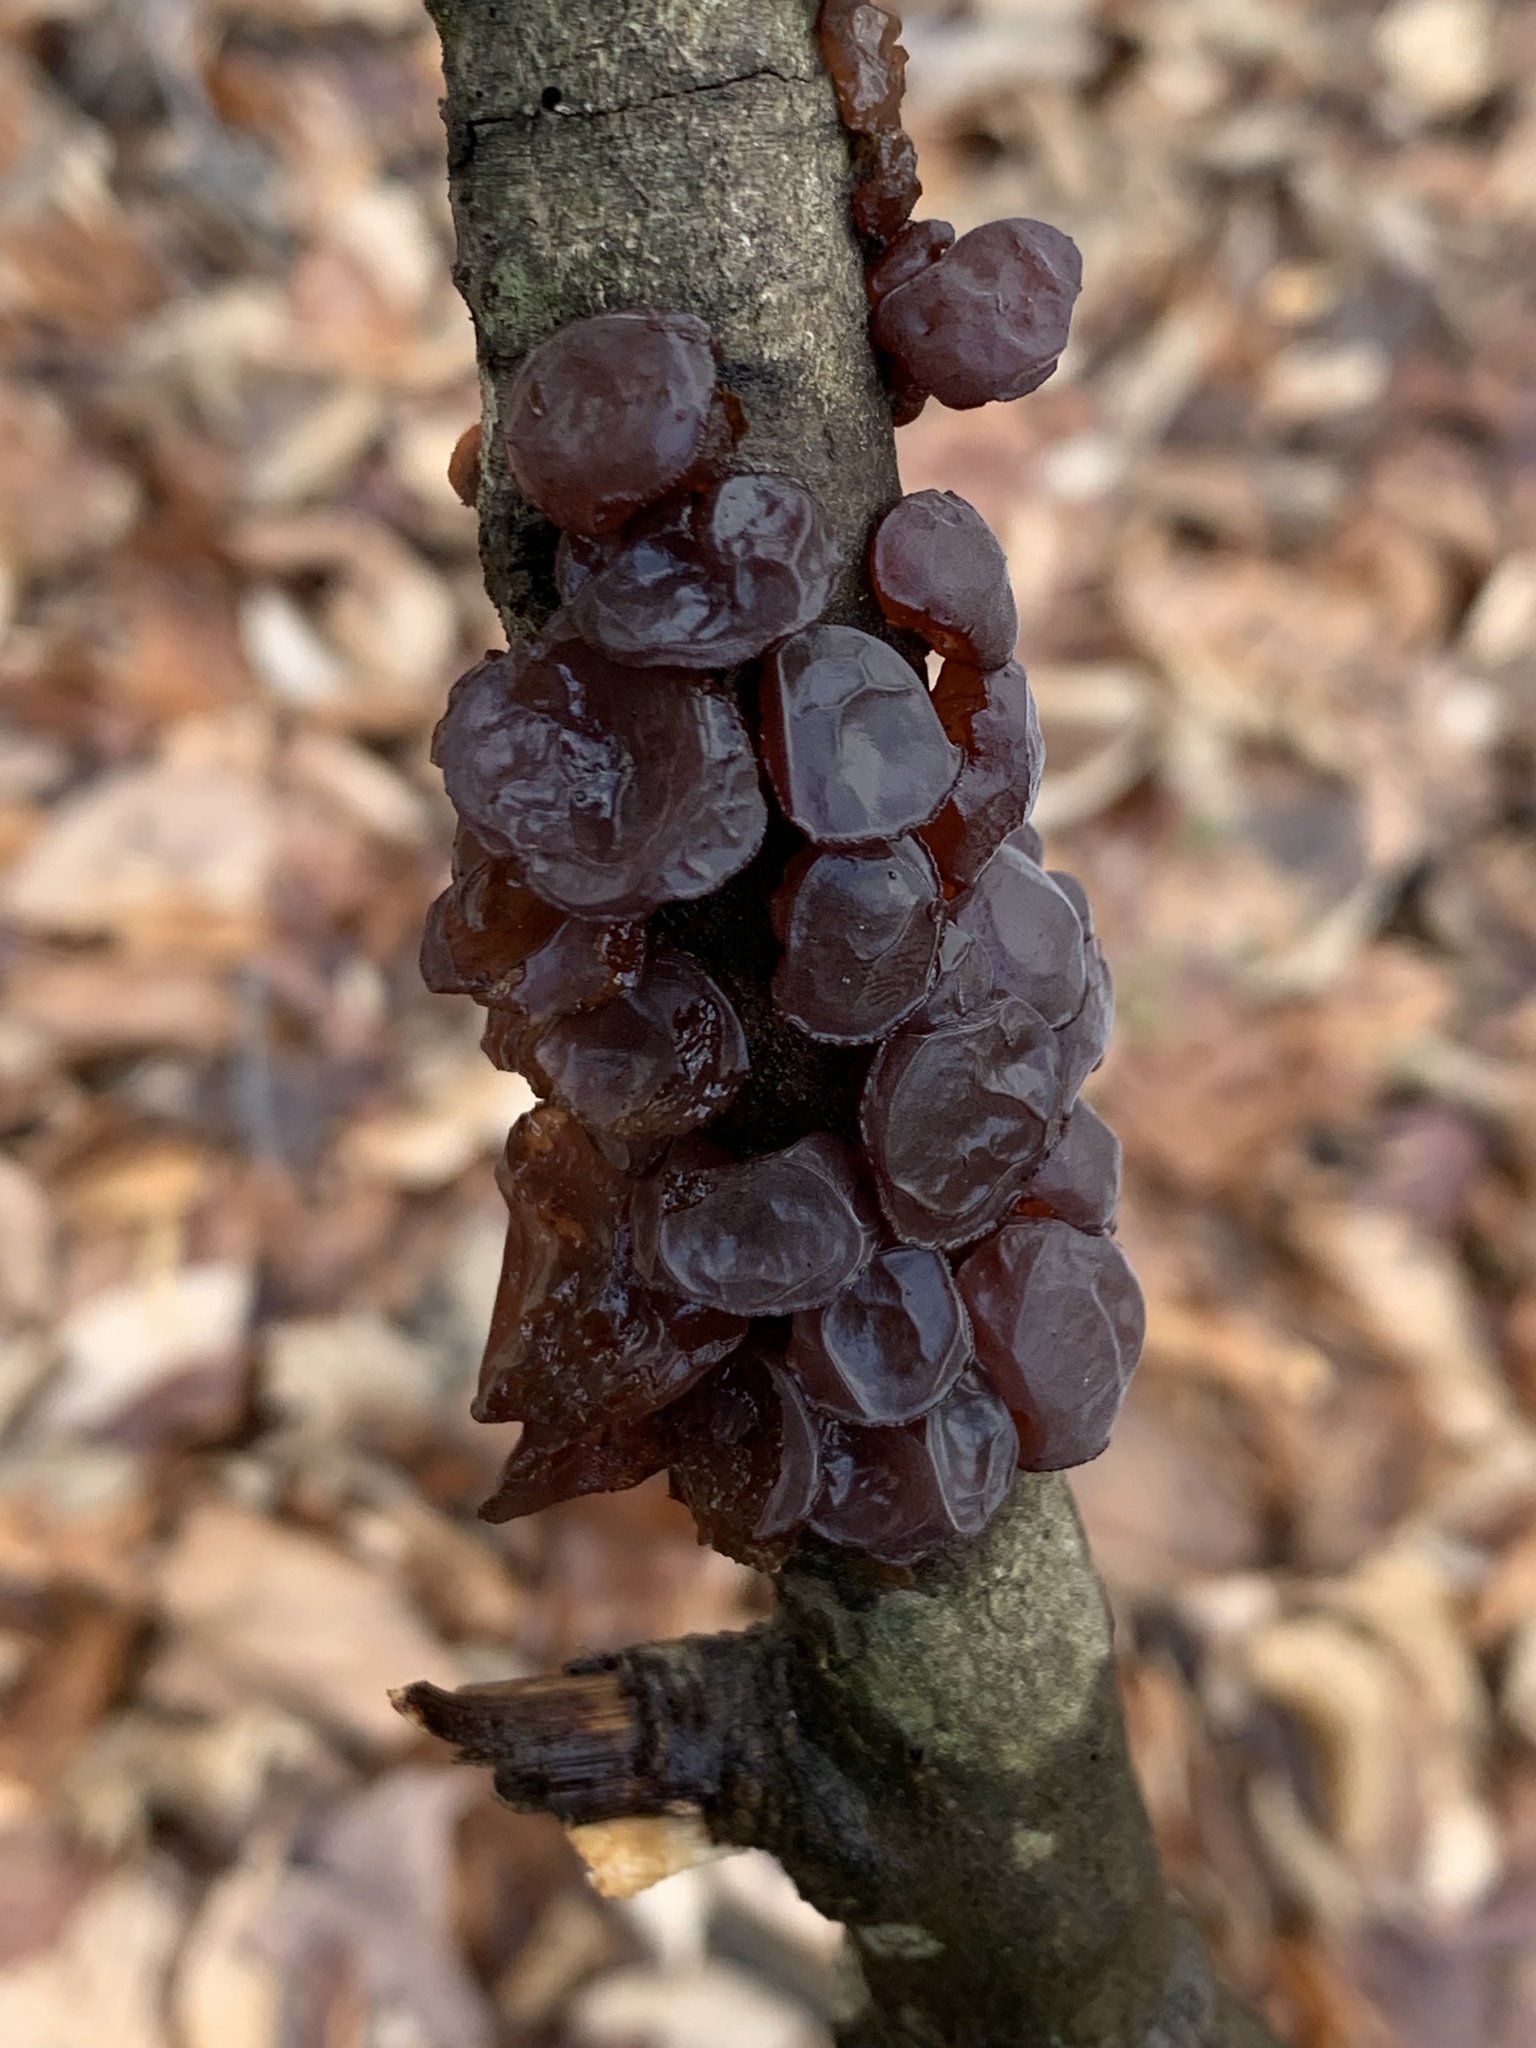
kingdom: Fungi
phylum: Basidiomycota
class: Agaricomycetes
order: Auriculariales
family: Auriculariaceae
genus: Exidia
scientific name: Exidia
